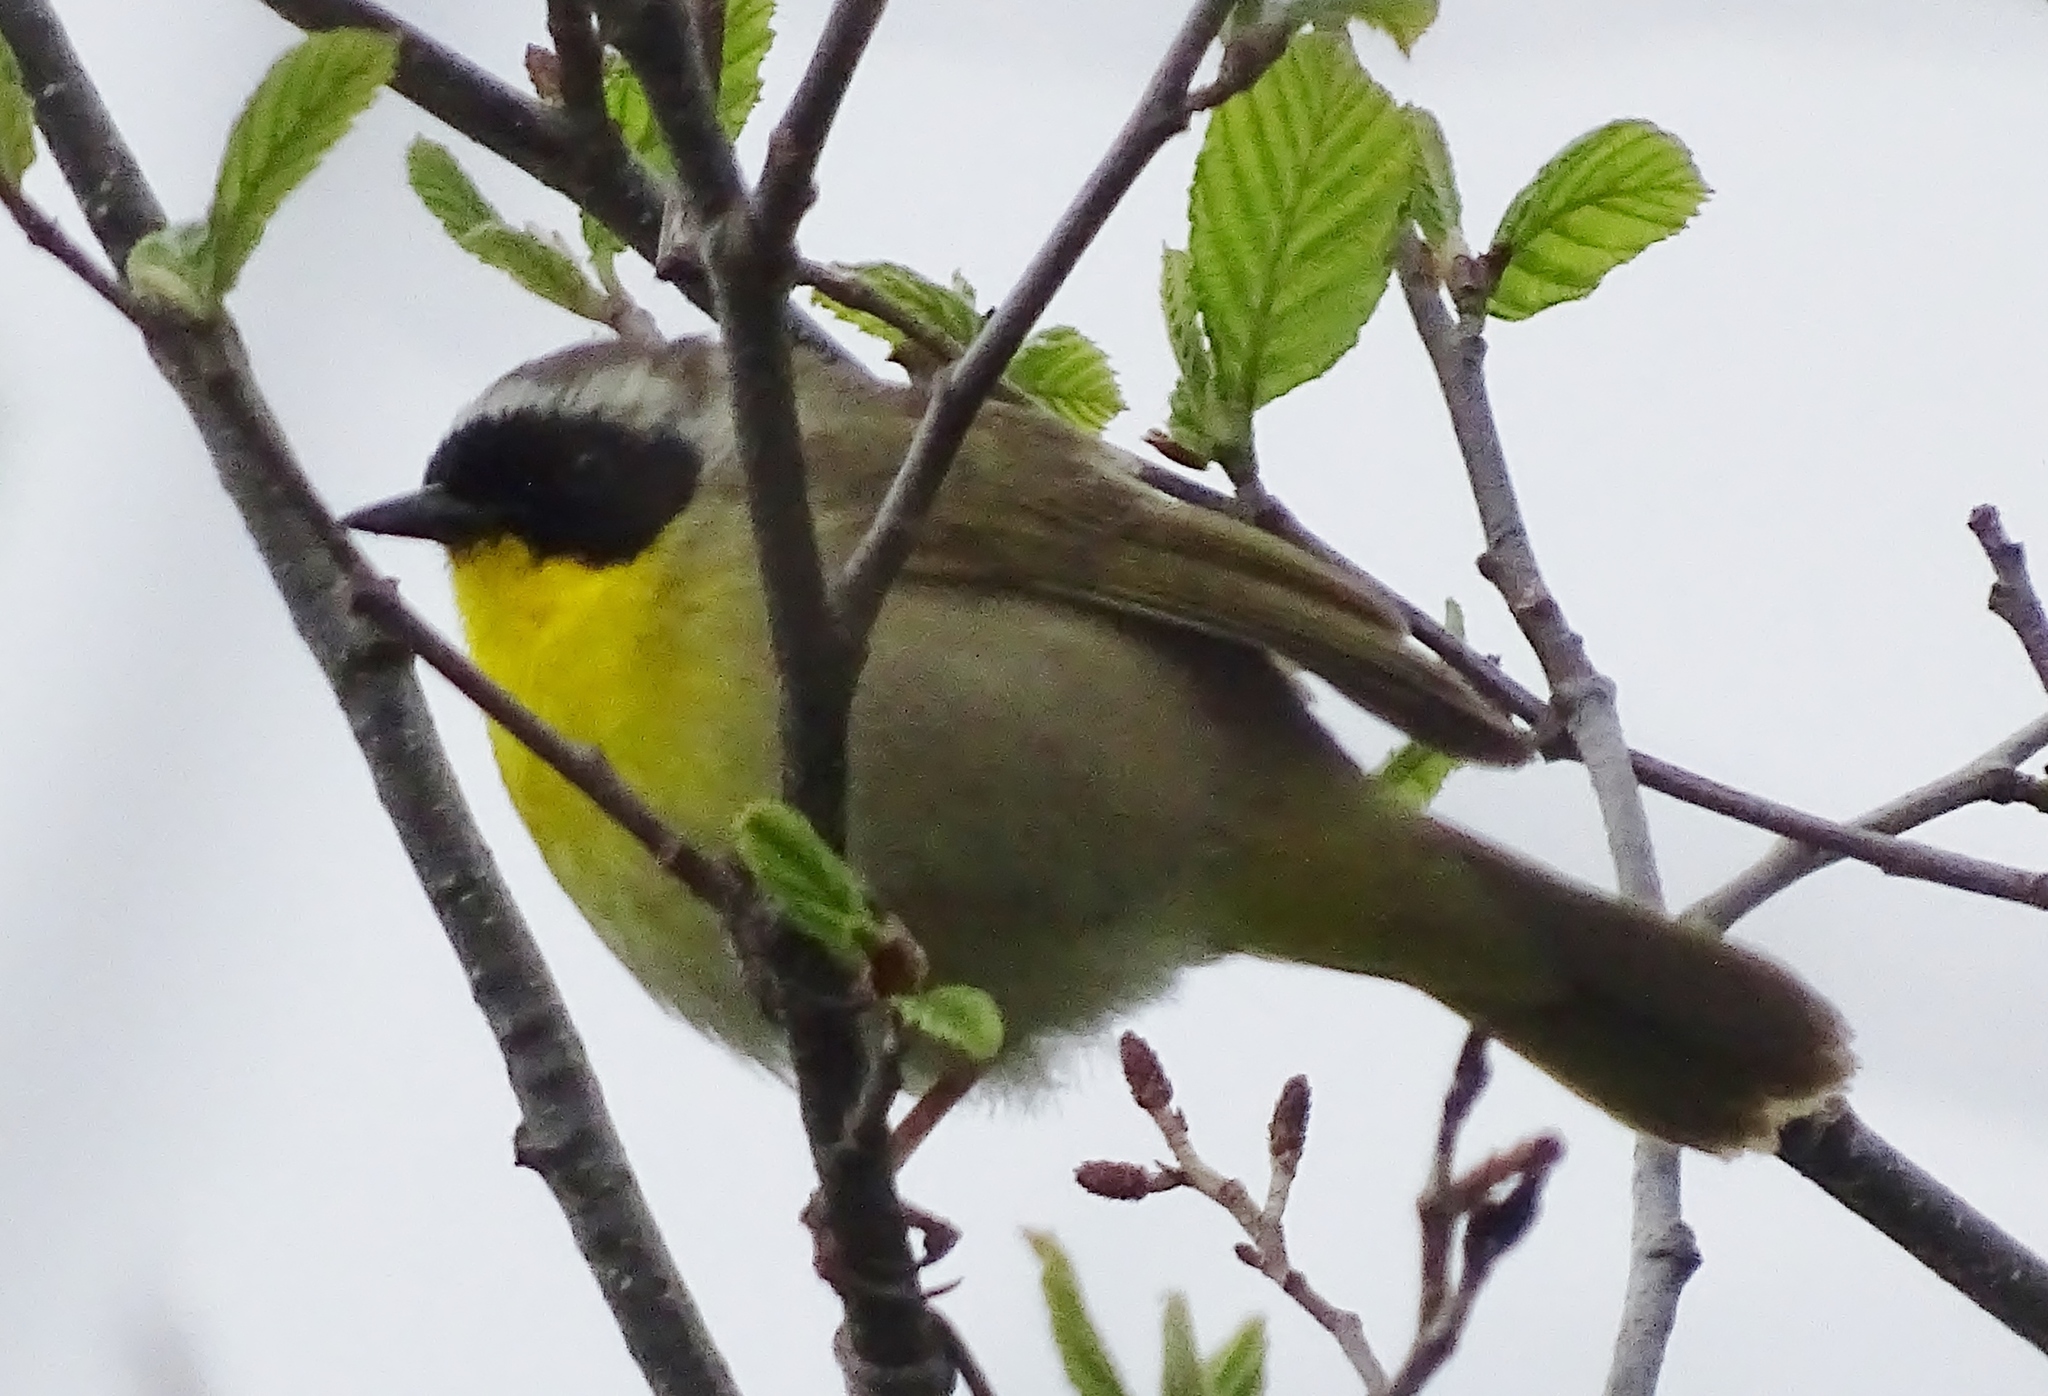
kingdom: Animalia
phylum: Chordata
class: Aves
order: Passeriformes
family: Parulidae
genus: Geothlypis
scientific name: Geothlypis trichas
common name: Common yellowthroat
